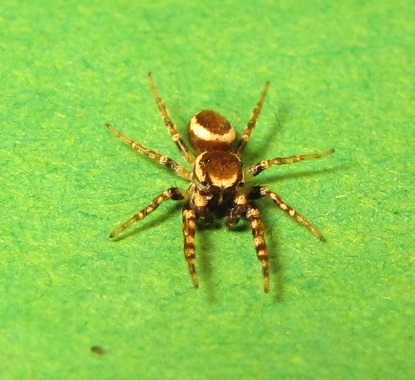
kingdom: Animalia
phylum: Arthropoda
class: Arachnida
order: Araneae
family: Salticidae
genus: Pelegrina
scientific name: Pelegrina proterva
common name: Common white-cheeked jumping spider
